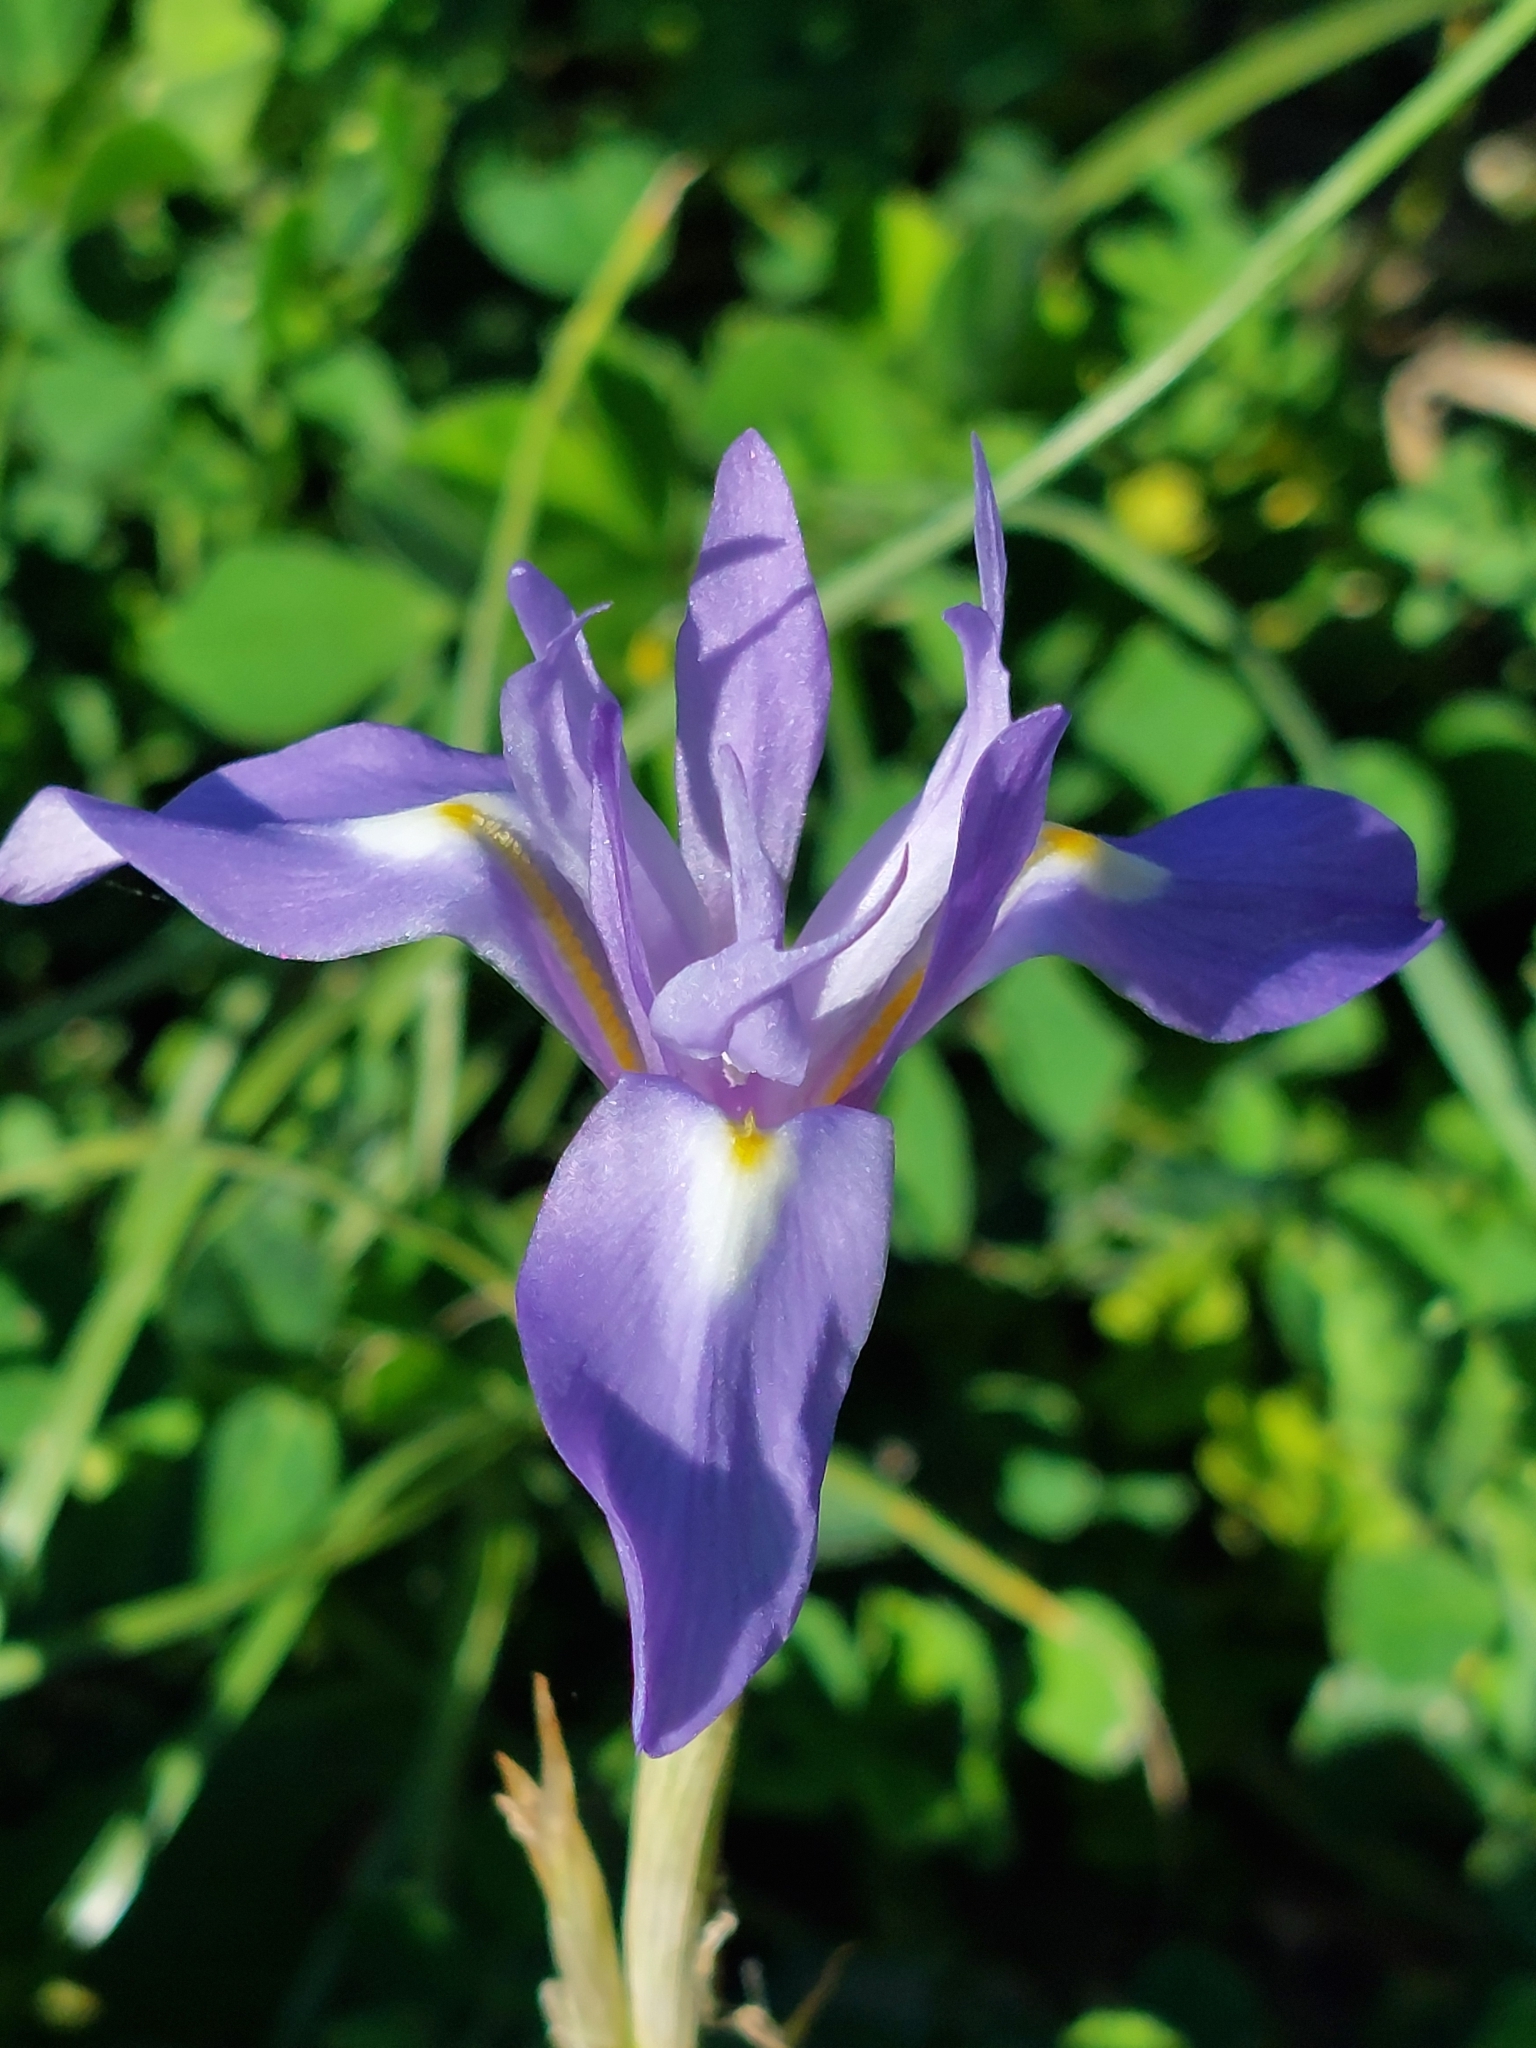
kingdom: Plantae
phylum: Tracheophyta
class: Liliopsida
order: Asparagales
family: Iridaceae
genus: Moraea
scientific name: Moraea sisyrinchium
